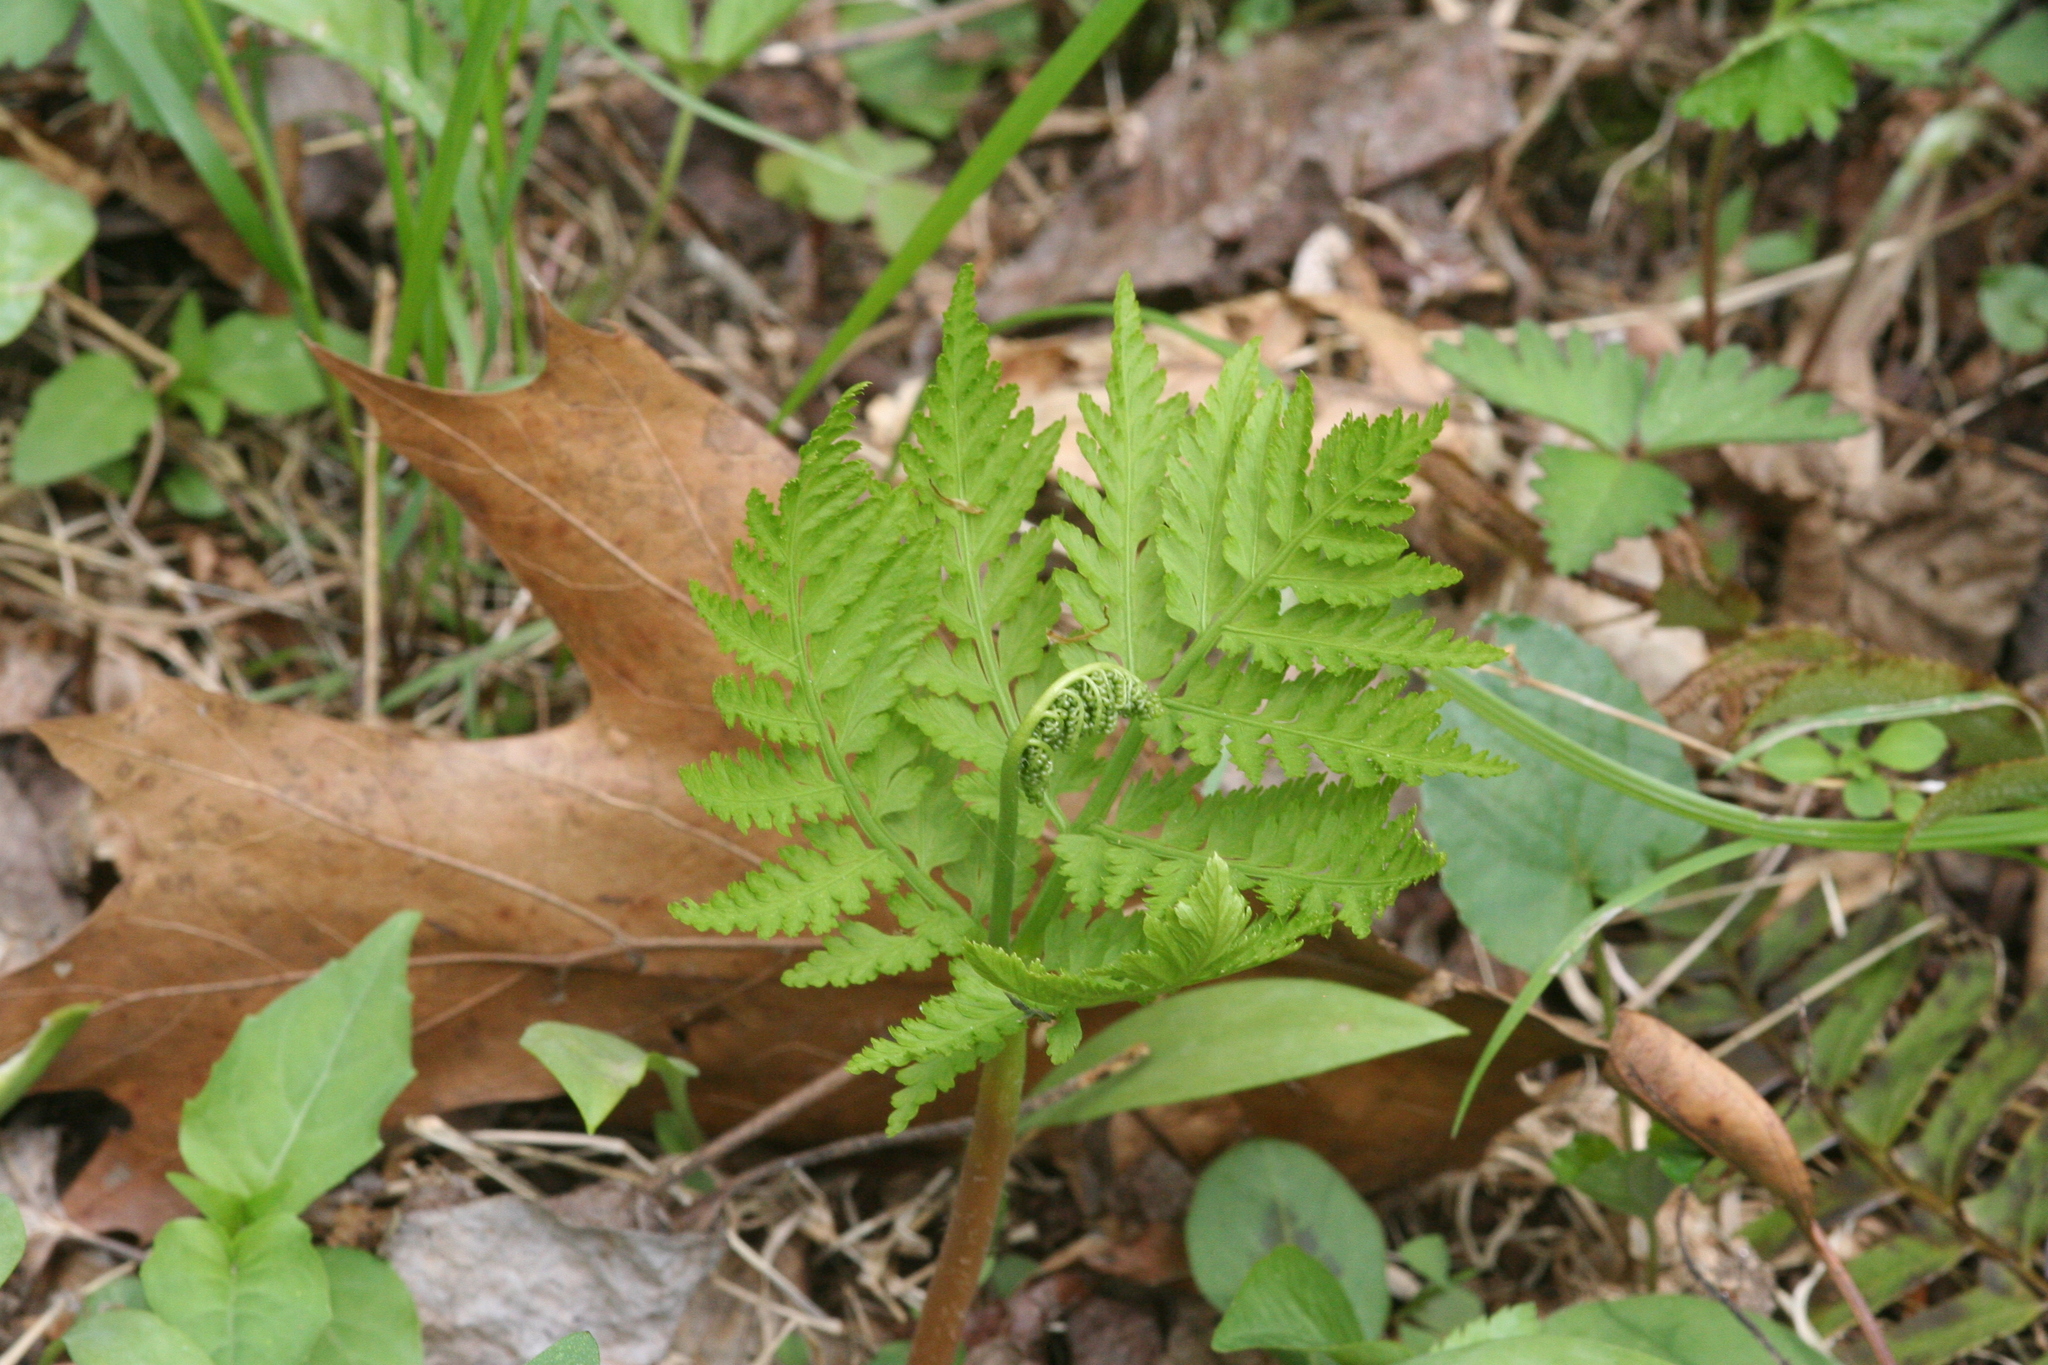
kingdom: Plantae
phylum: Tracheophyta
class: Polypodiopsida
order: Ophioglossales
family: Ophioglossaceae
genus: Botrypus
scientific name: Botrypus virginianus
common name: Common grapefern
